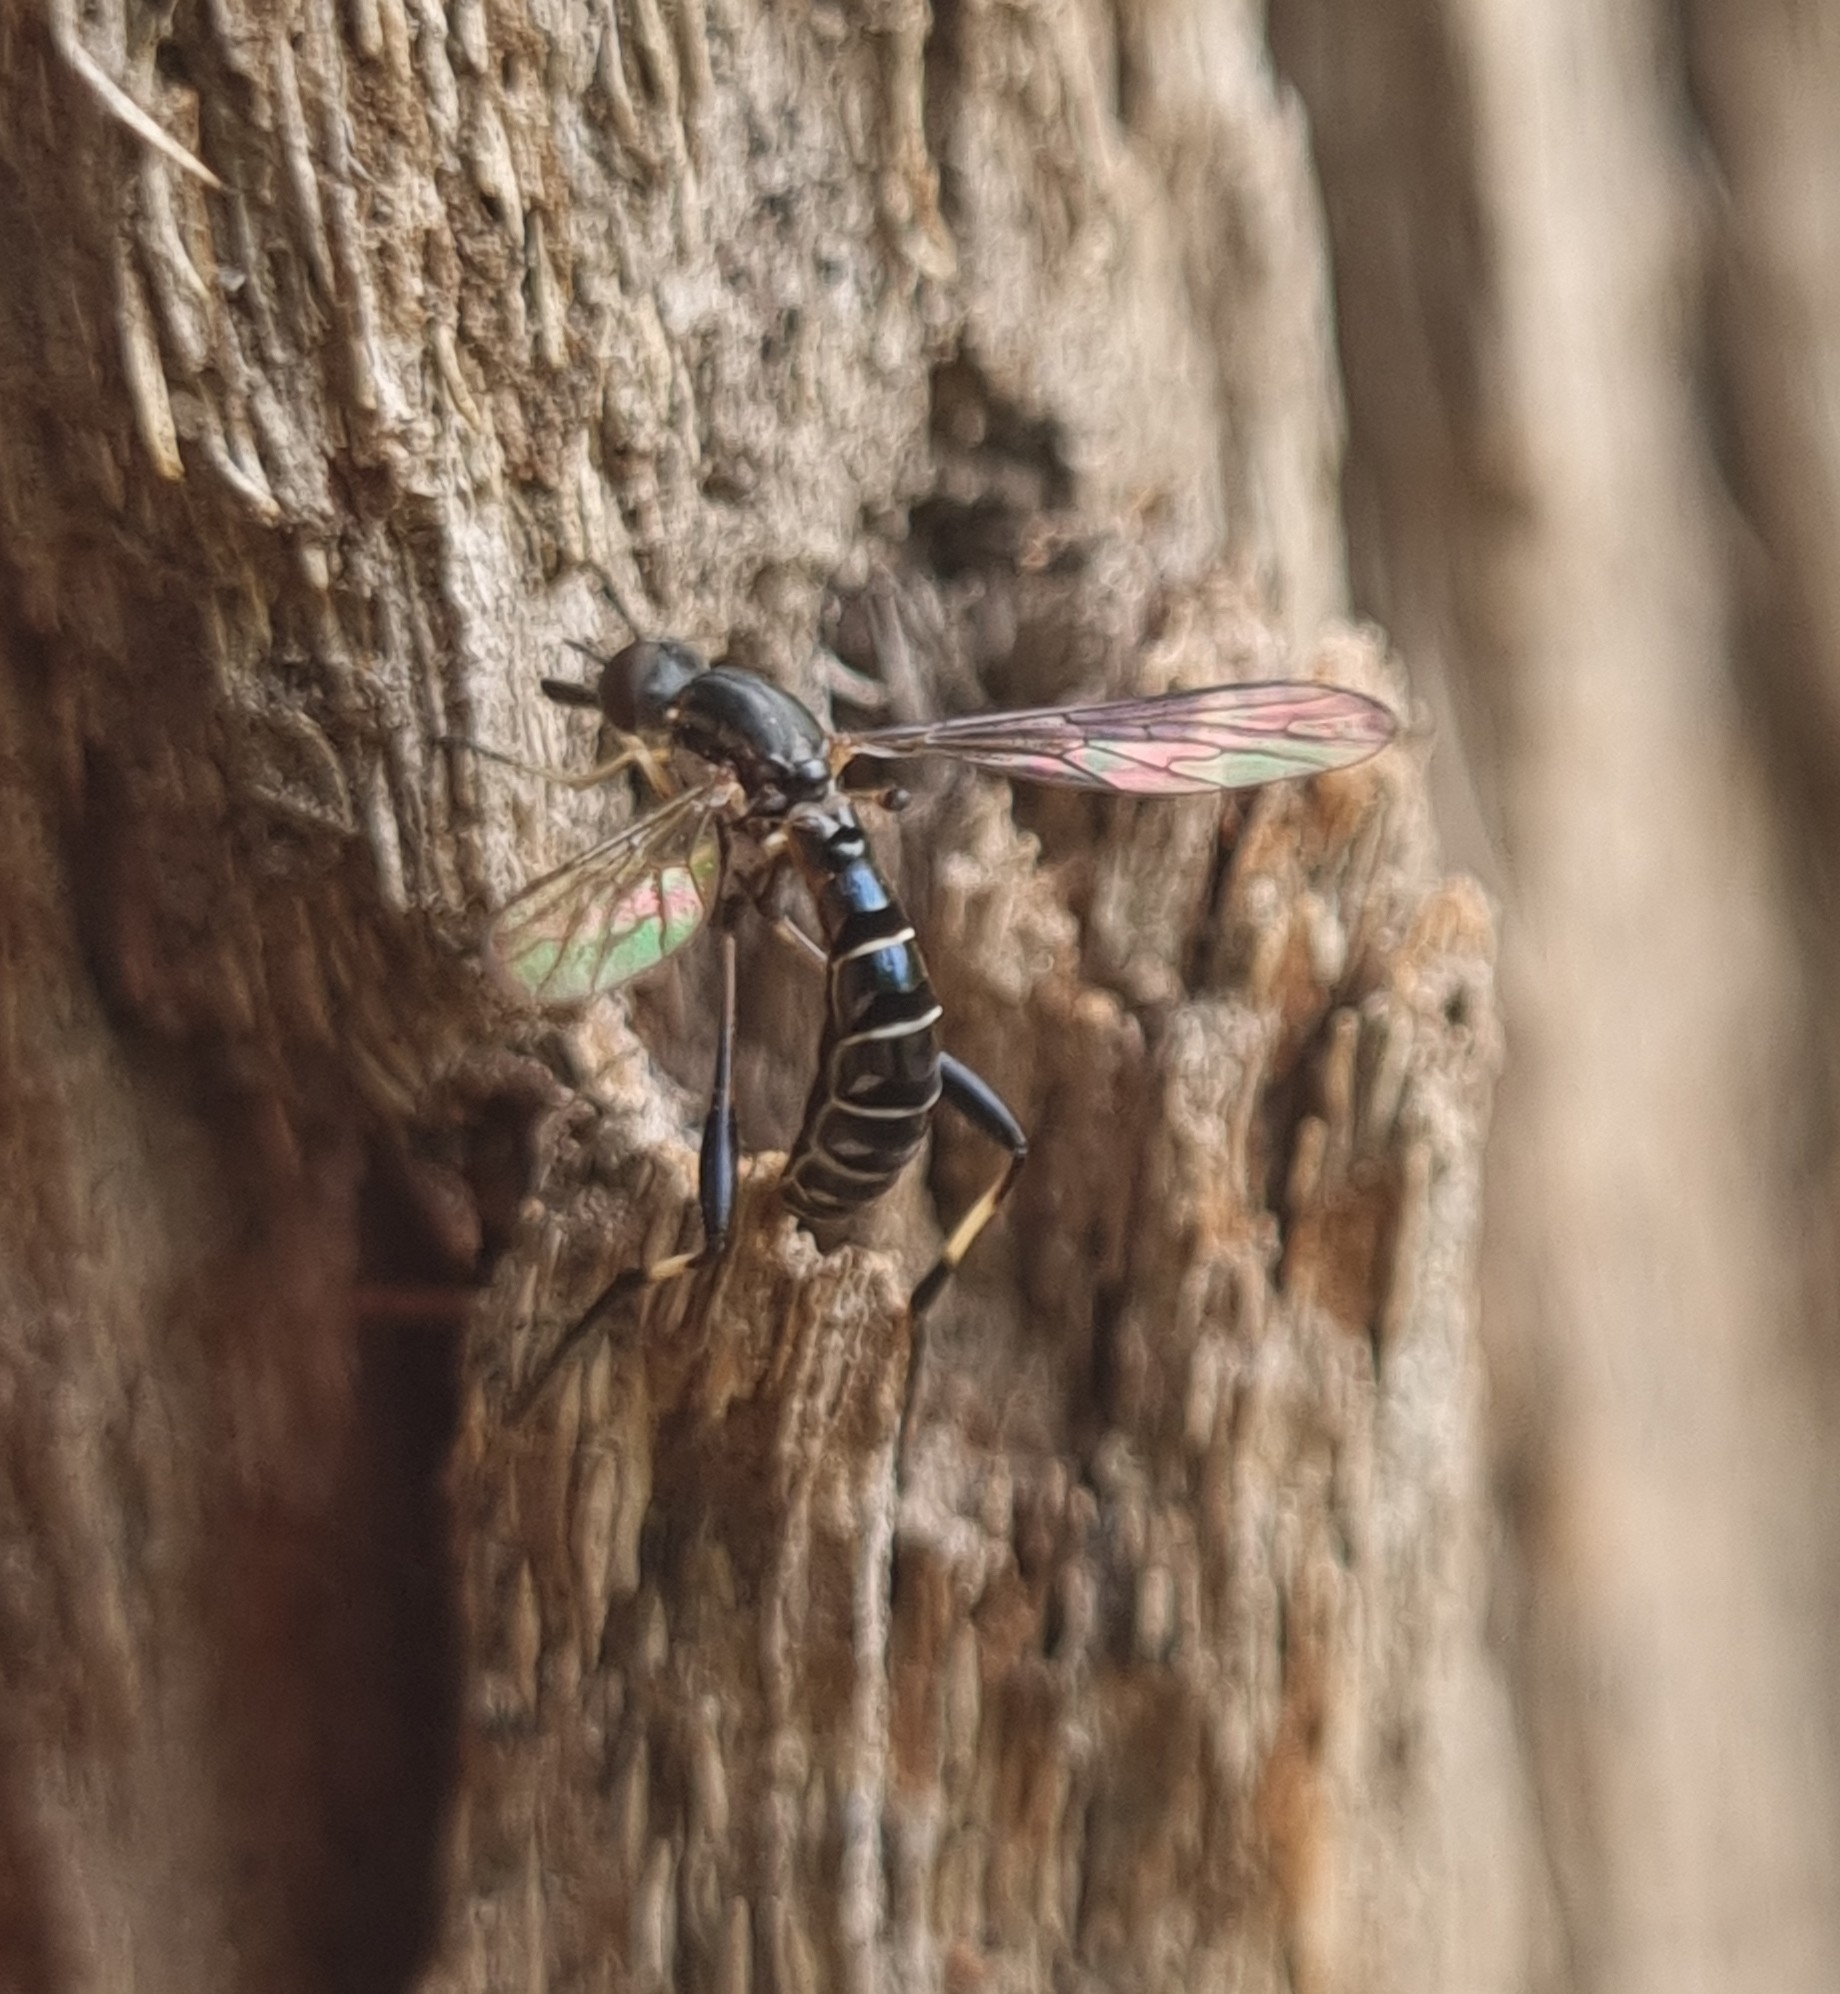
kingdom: Animalia
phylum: Arthropoda
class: Insecta
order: Diptera
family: Bombyliidae
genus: Zaclava
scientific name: Zaclava
